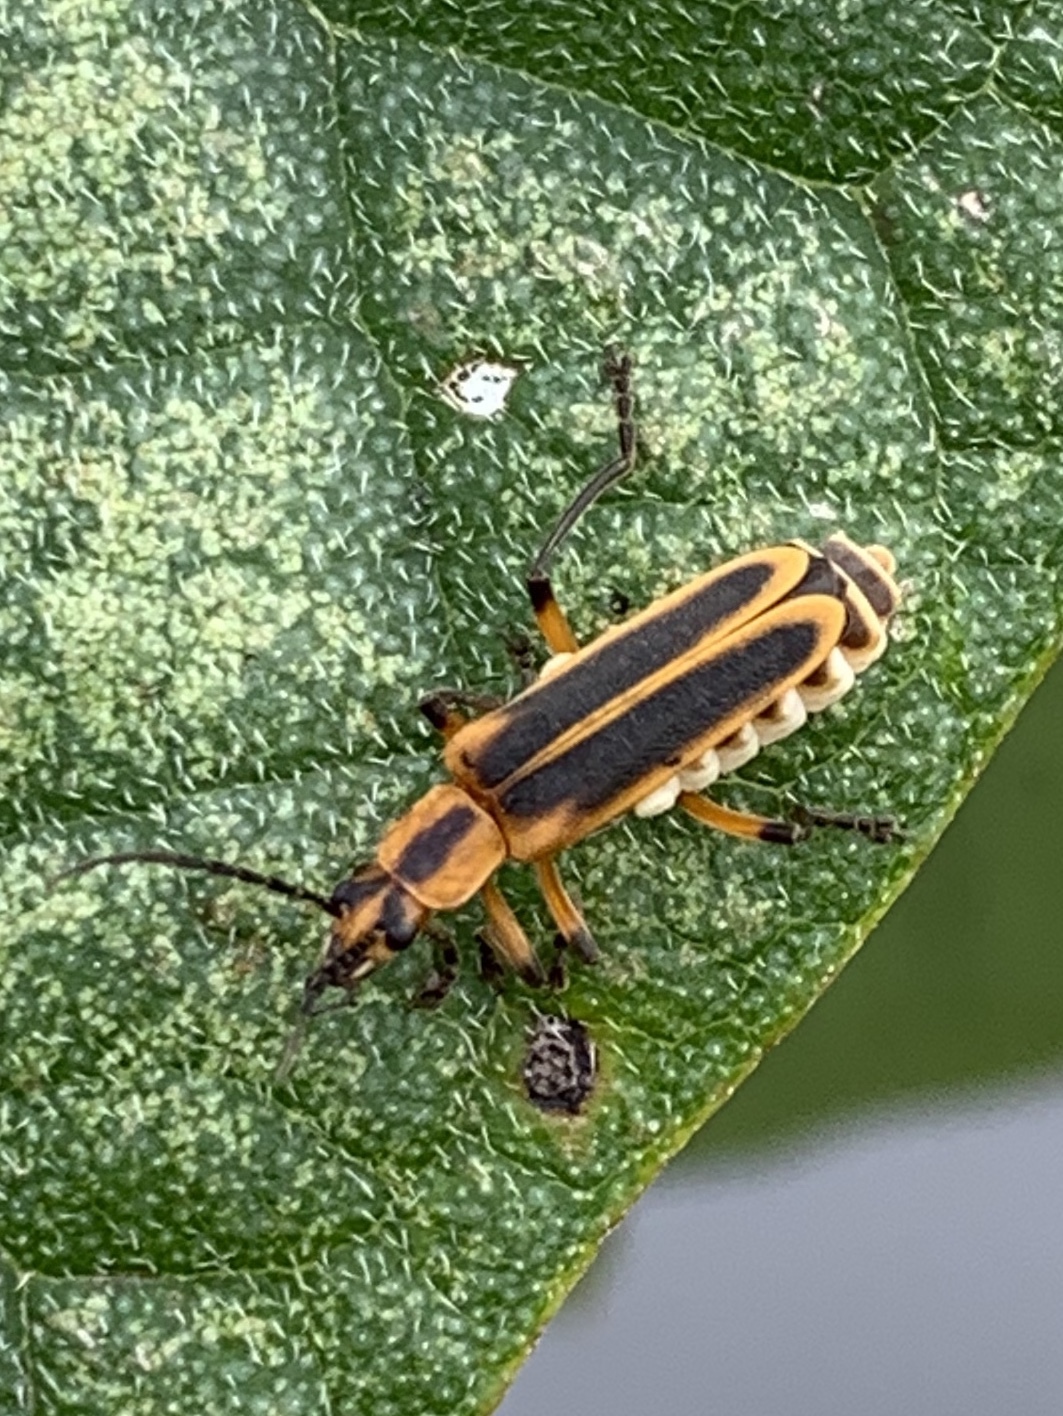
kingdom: Animalia
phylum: Arthropoda
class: Insecta
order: Coleoptera
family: Cantharidae
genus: Chauliognathus
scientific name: Chauliognathus marginatus
